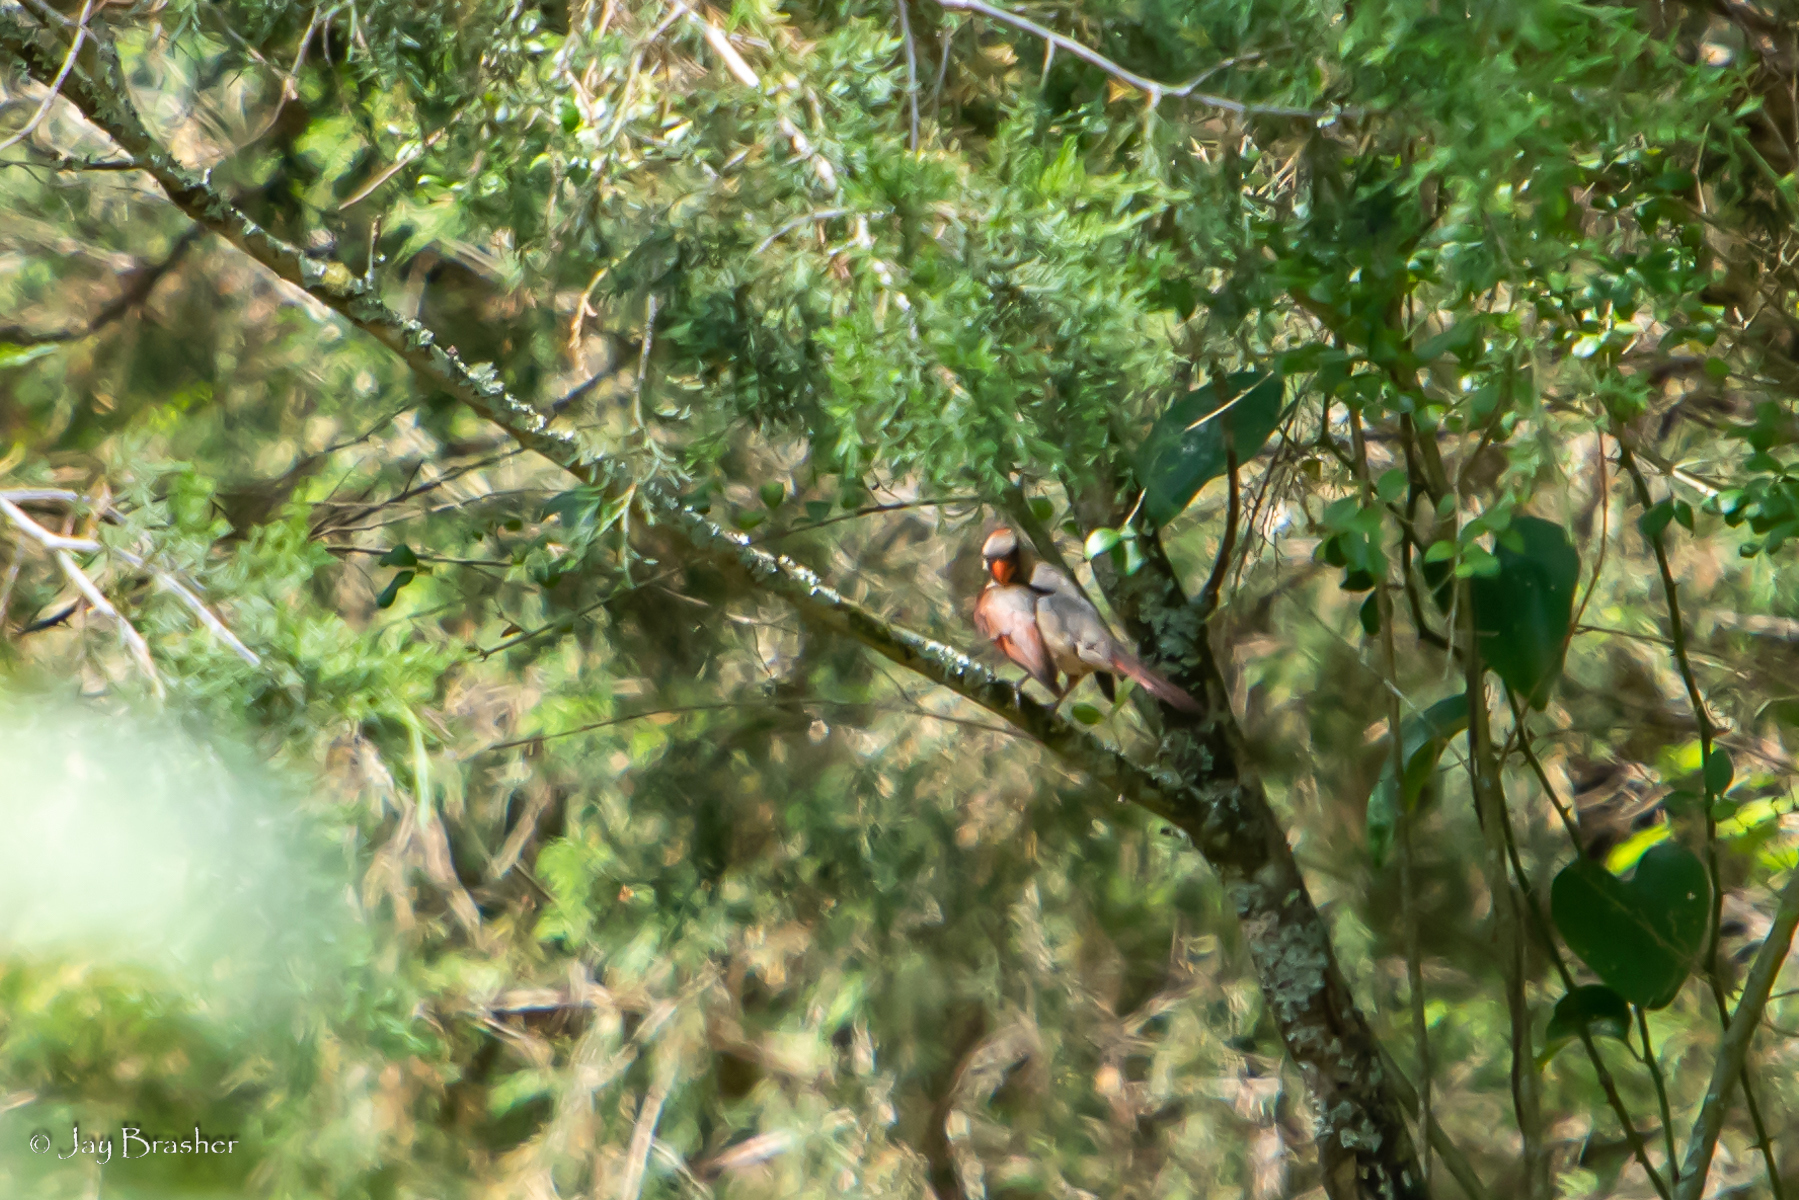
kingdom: Animalia
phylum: Chordata
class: Aves
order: Passeriformes
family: Cardinalidae
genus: Cardinalis
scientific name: Cardinalis cardinalis
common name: Northern cardinal
